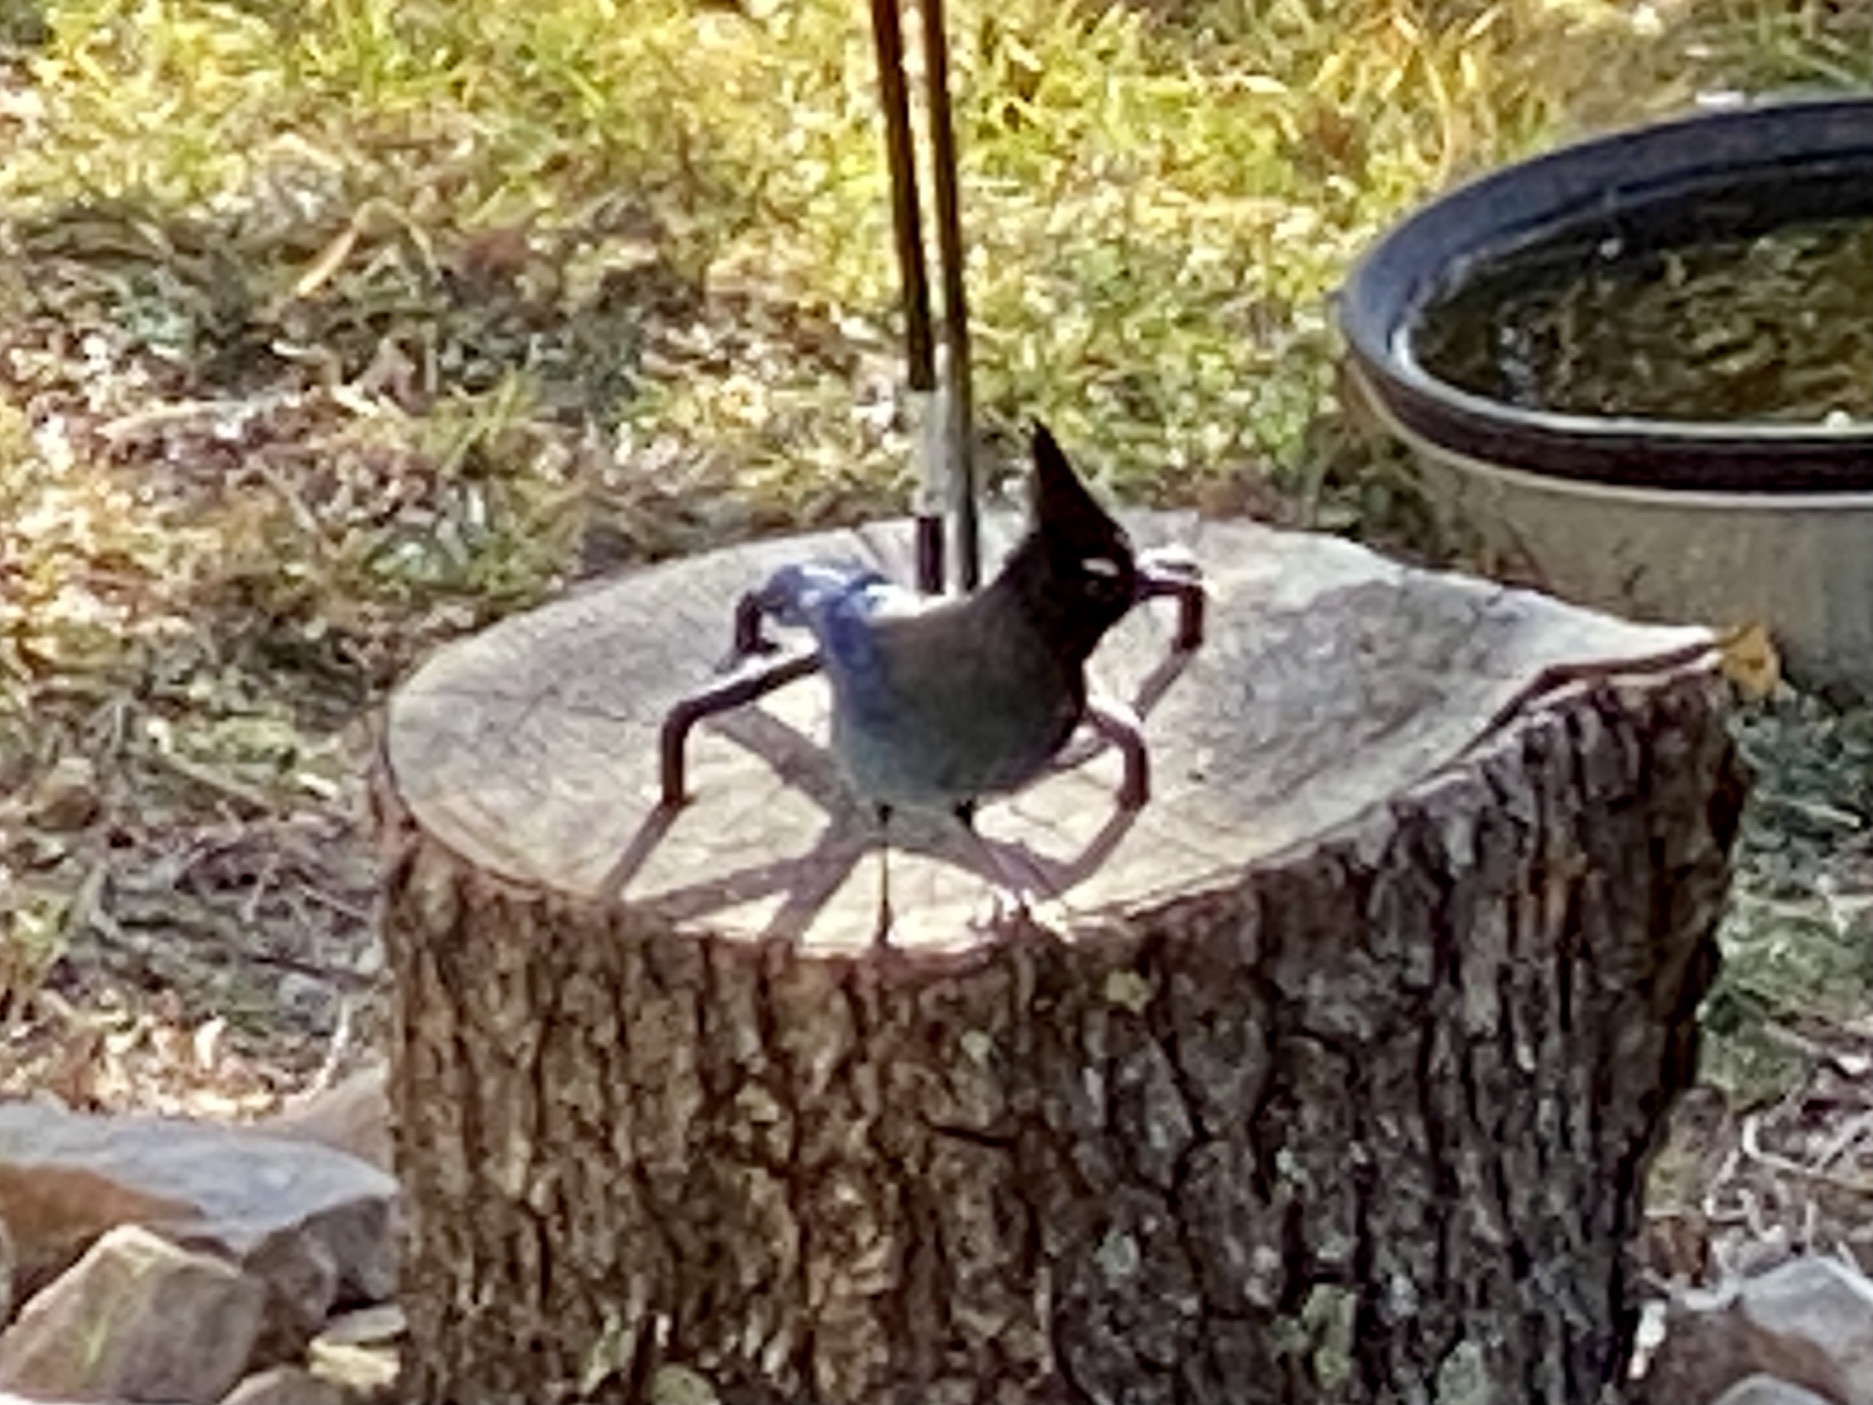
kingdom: Animalia
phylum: Chordata
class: Aves
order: Passeriformes
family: Corvidae
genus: Cyanocitta
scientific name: Cyanocitta stelleri
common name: Steller's jay
